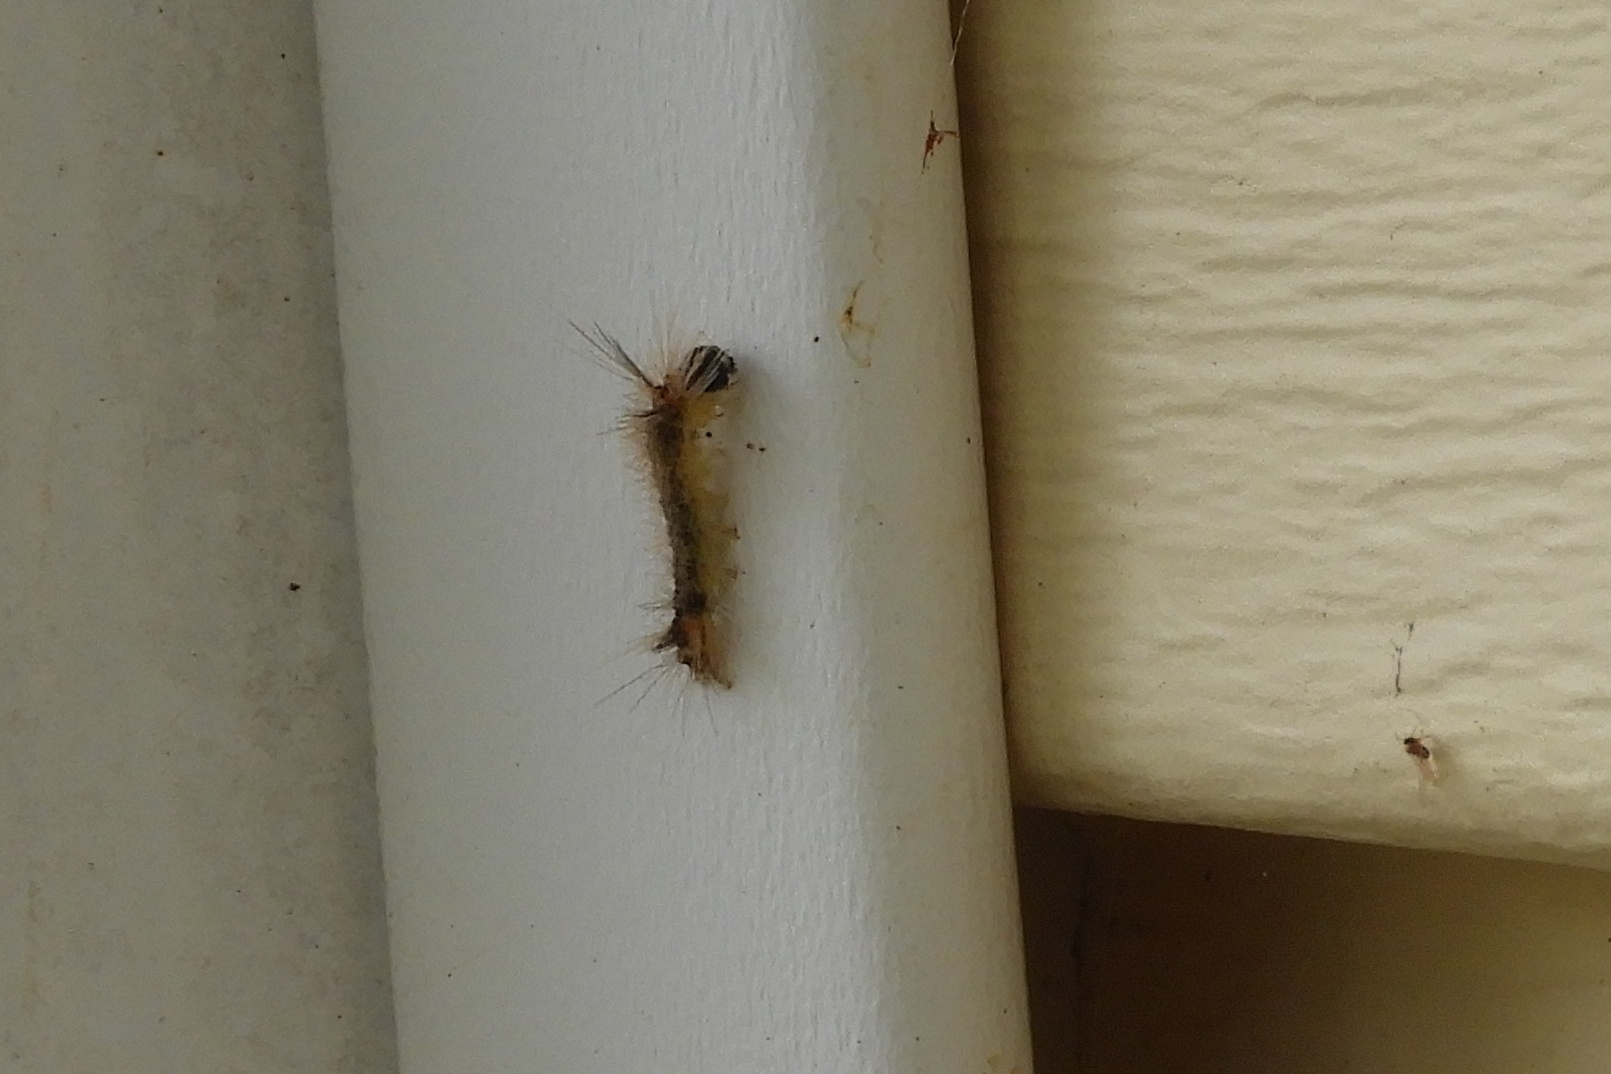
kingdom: Animalia
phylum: Arthropoda
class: Insecta
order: Lepidoptera
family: Erebidae
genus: Halysidota
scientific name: Halysidota tessellaris
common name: Banded tussock moth
